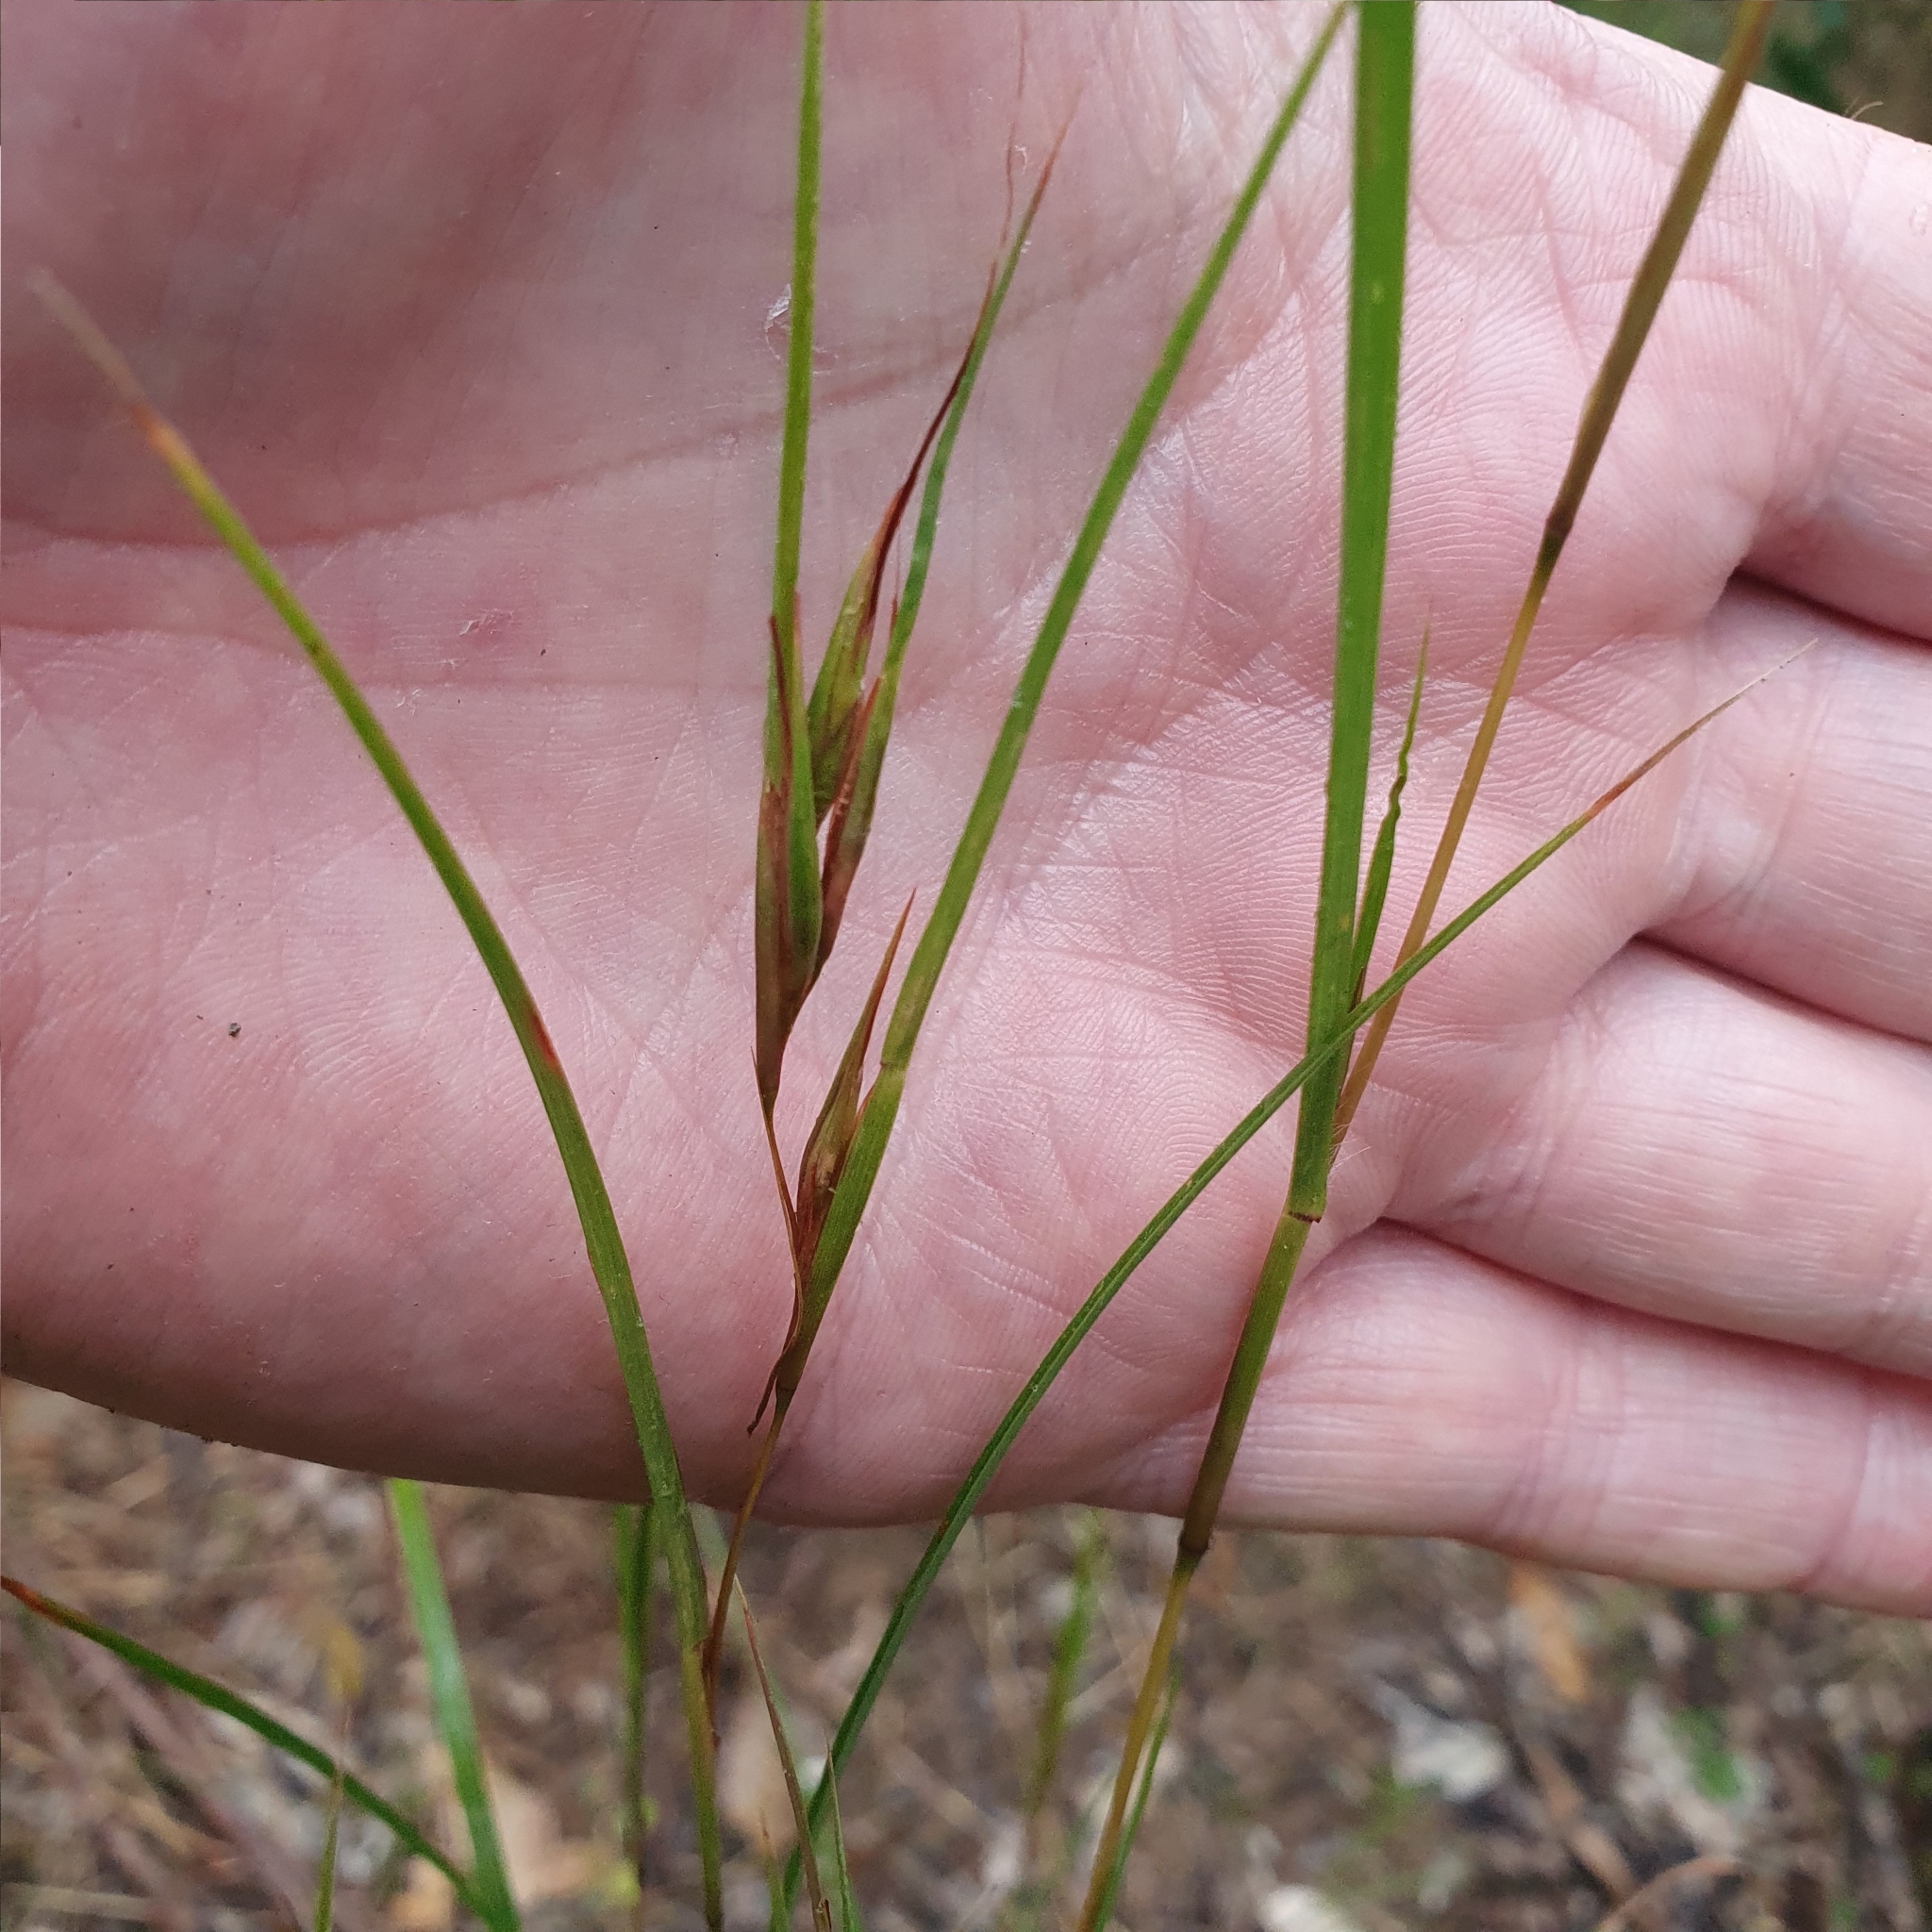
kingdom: Plantae
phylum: Tracheophyta
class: Liliopsida
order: Poales
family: Poaceae
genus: Themeda
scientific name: Themeda triandra
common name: Kangaroo grass
